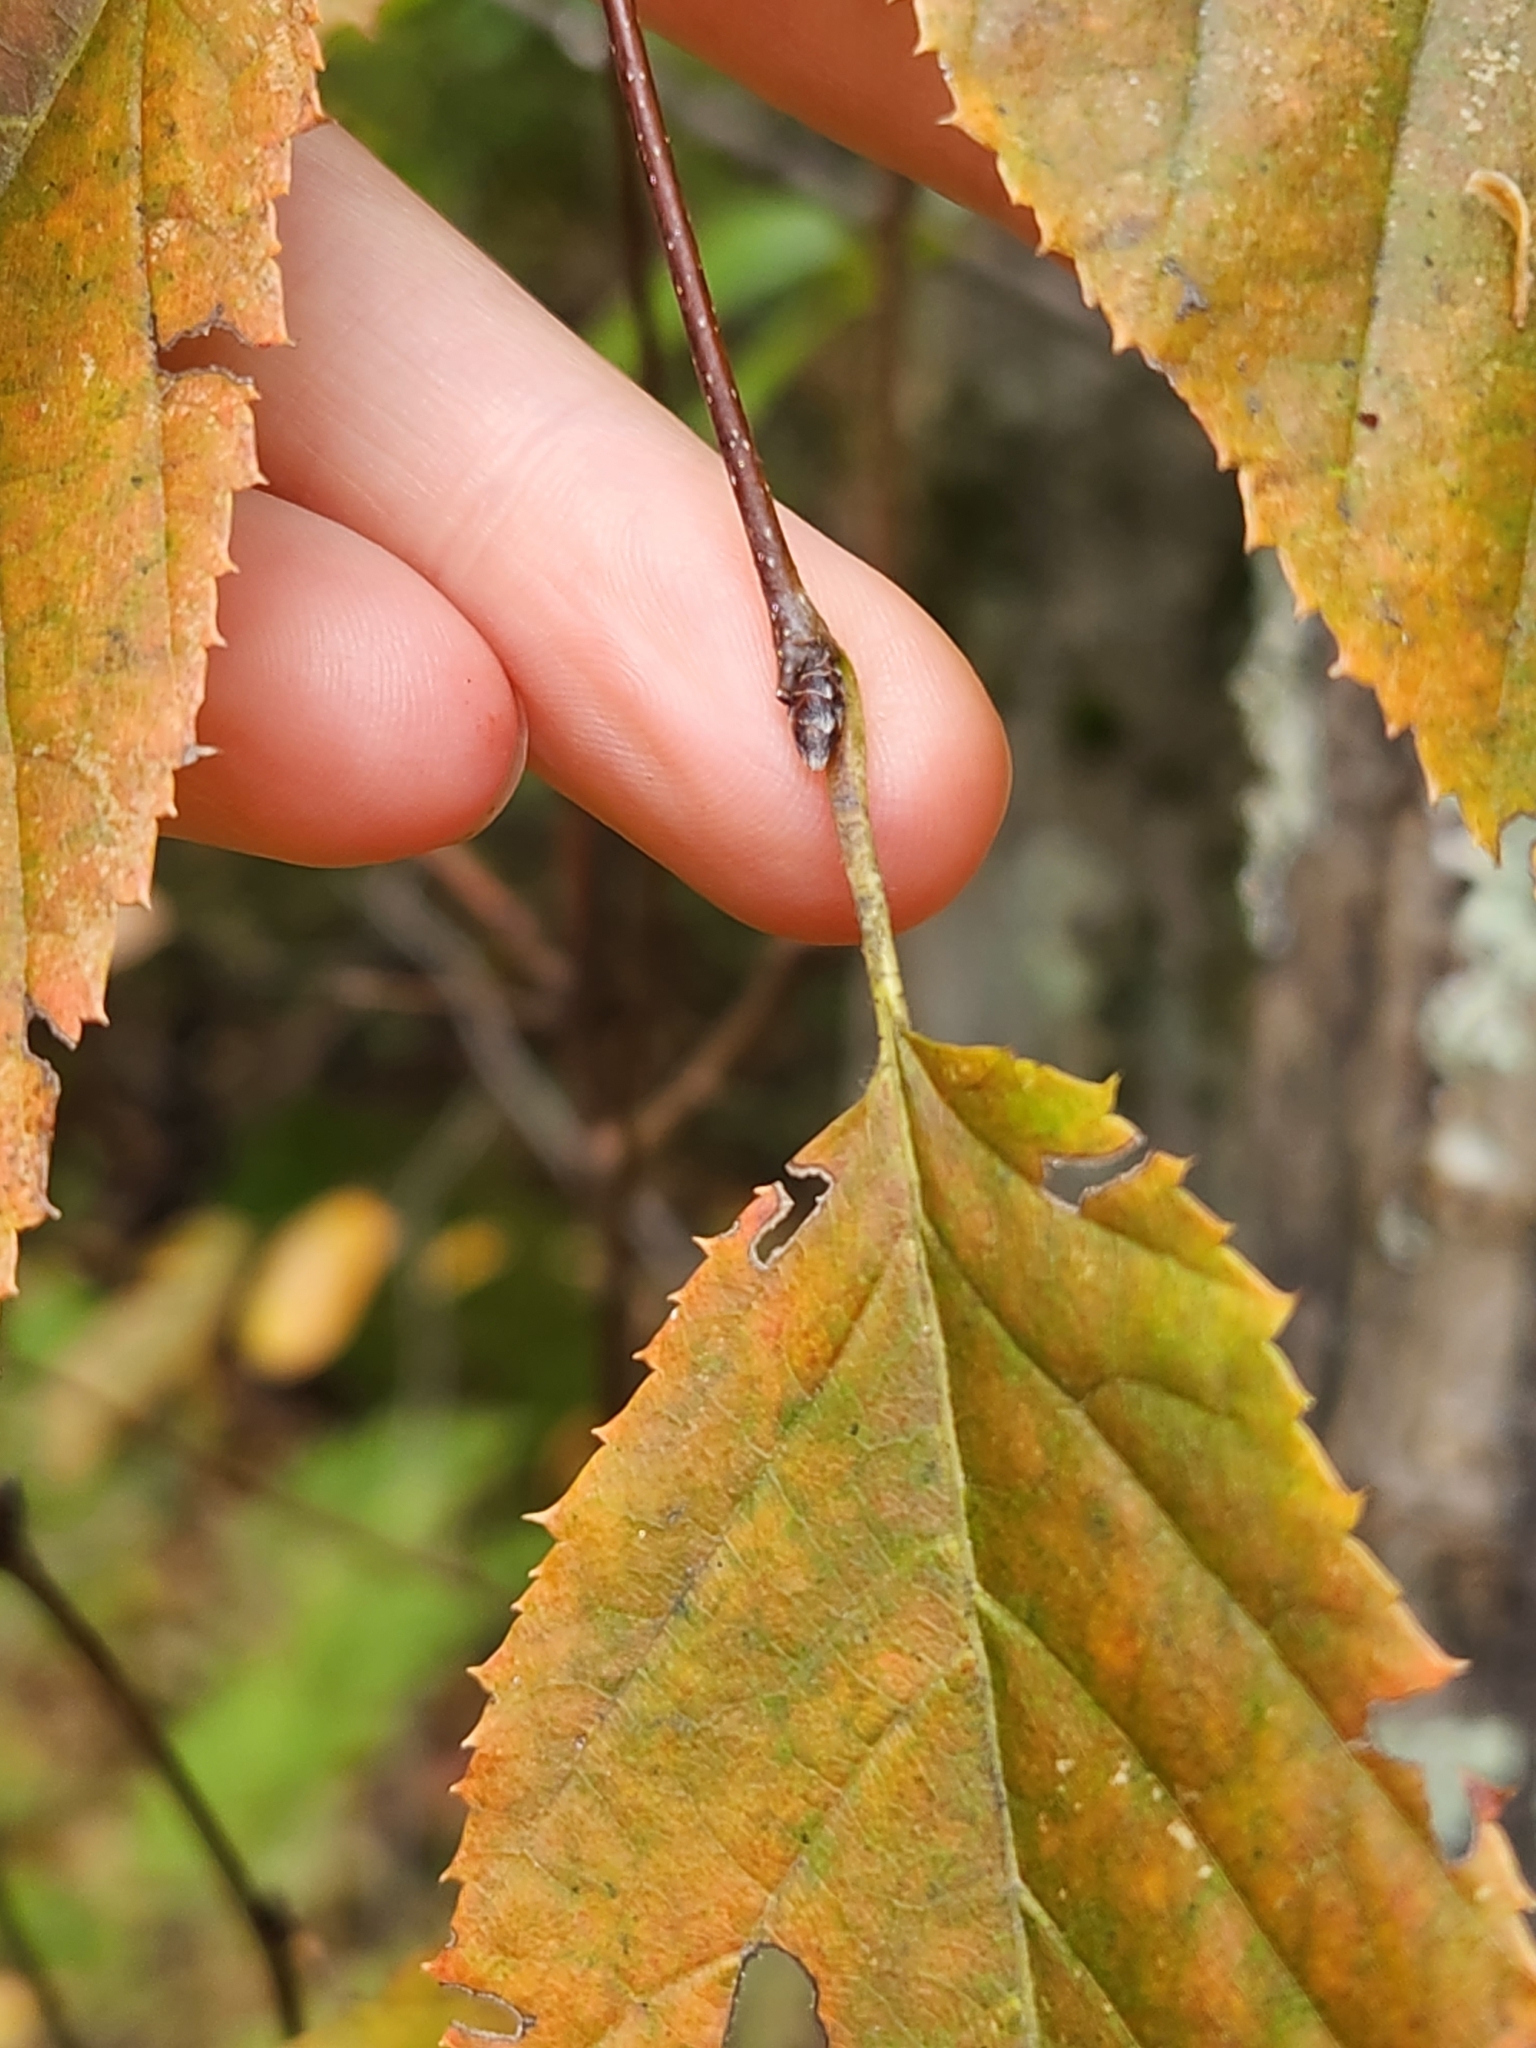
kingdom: Plantae
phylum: Tracheophyta
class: Magnoliopsida
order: Fagales
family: Betulaceae
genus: Carpinus
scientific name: Carpinus caroliniana
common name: American hornbeam
